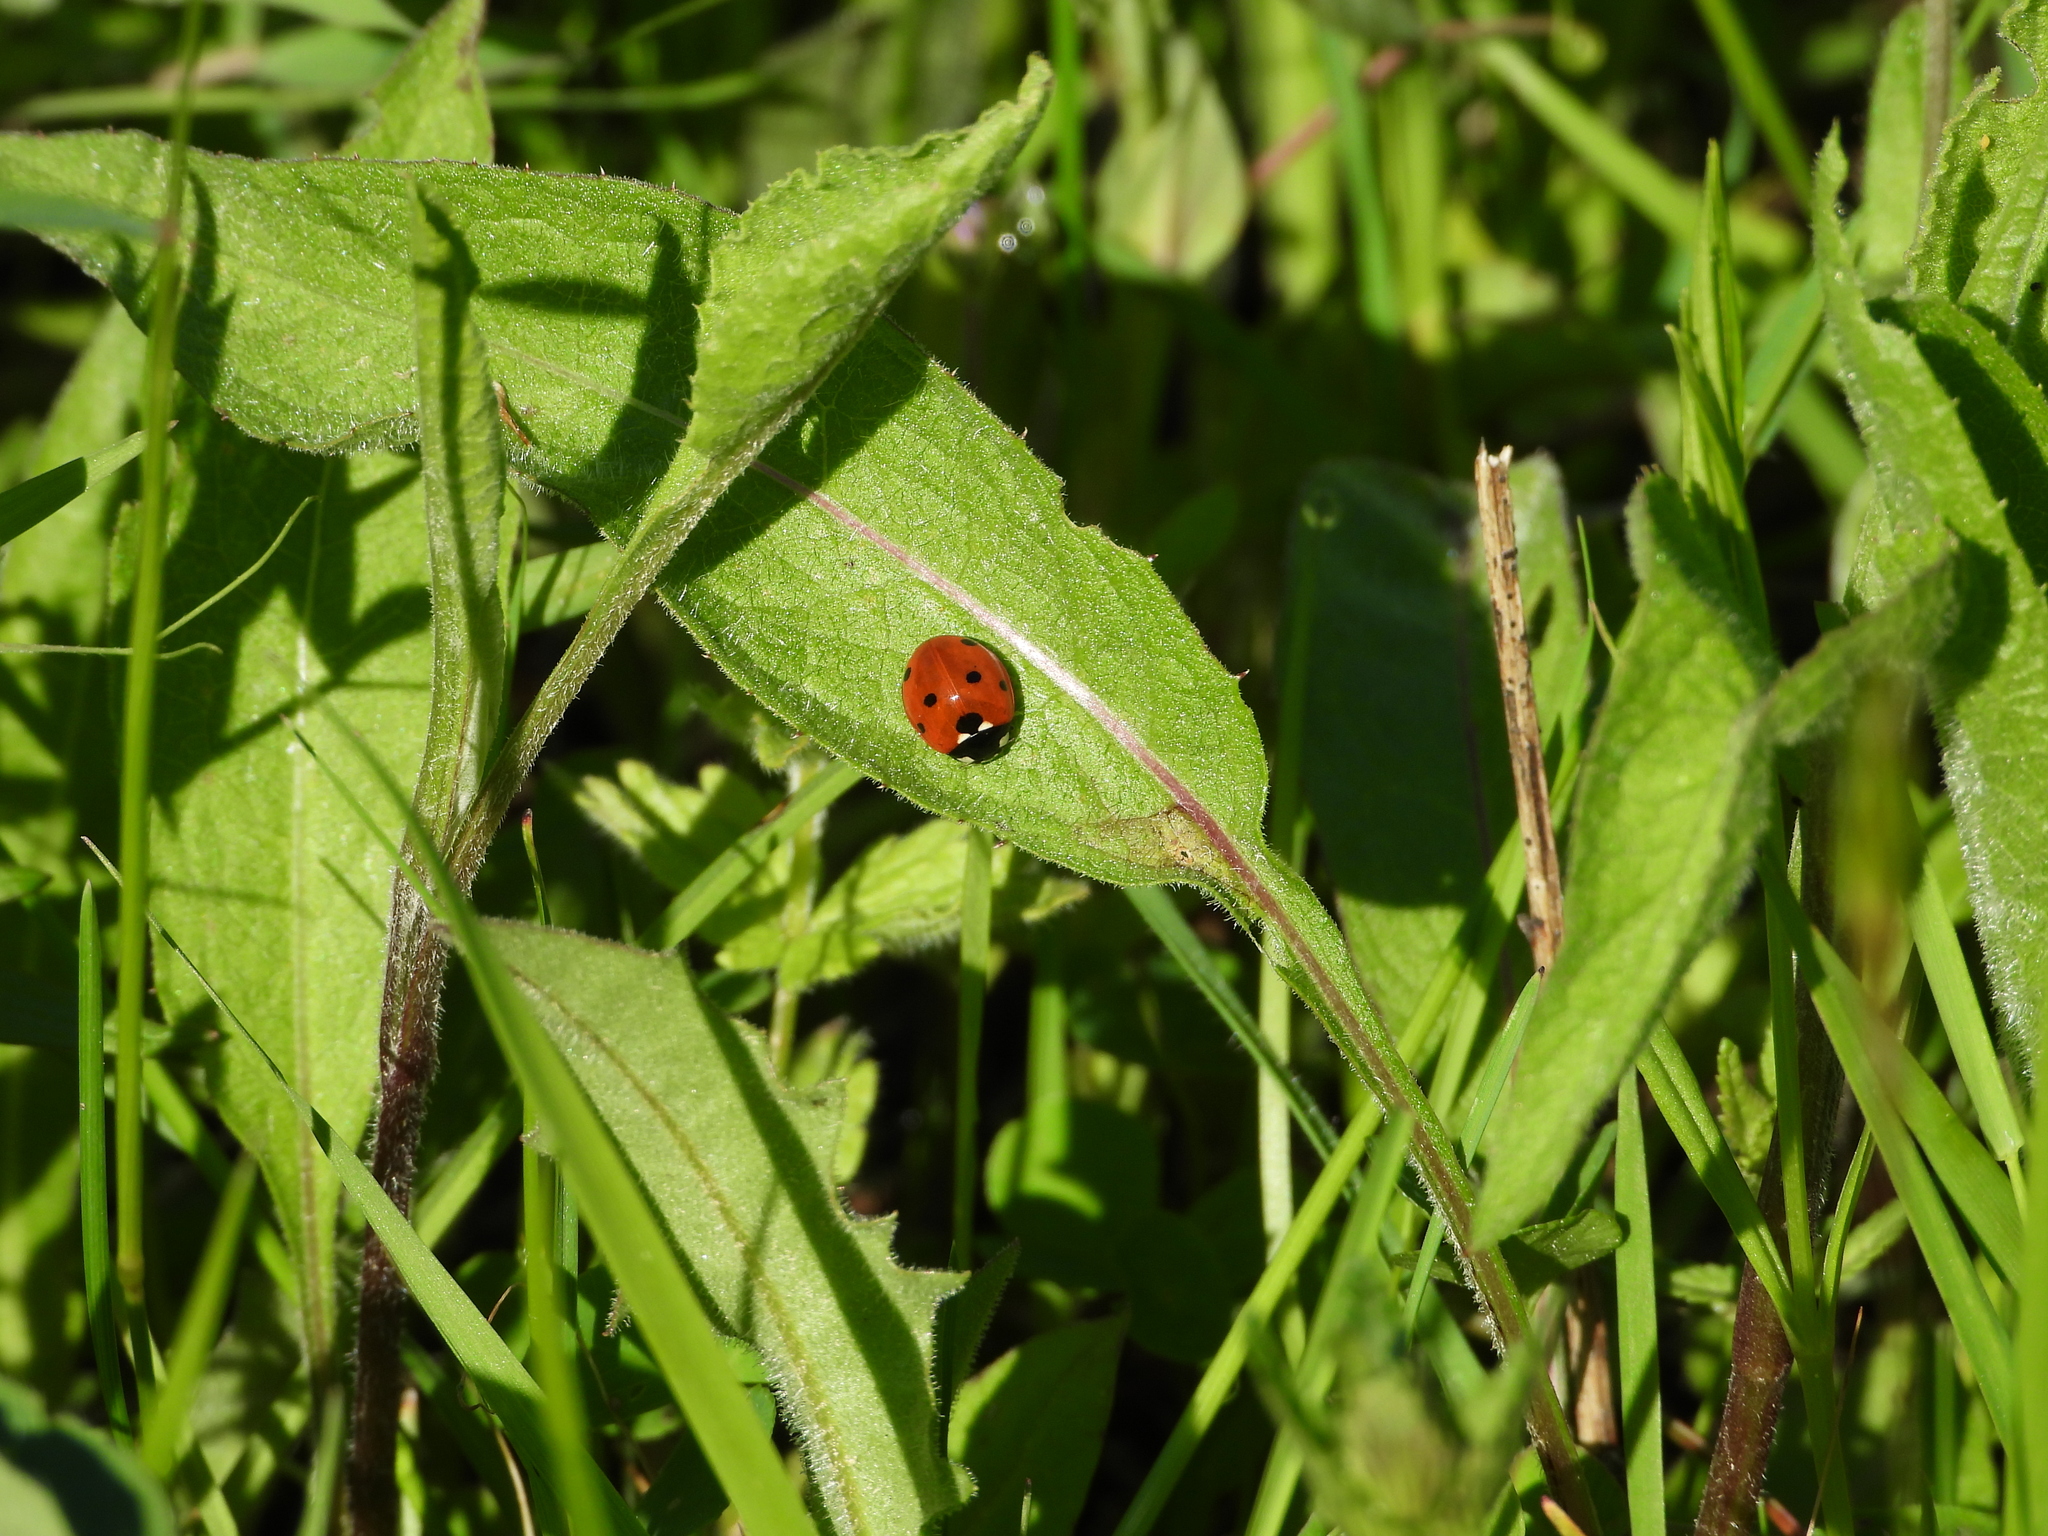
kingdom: Animalia
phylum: Arthropoda
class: Insecta
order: Coleoptera
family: Coccinellidae
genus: Coccinella
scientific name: Coccinella septempunctata
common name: Sevenspotted lady beetle
